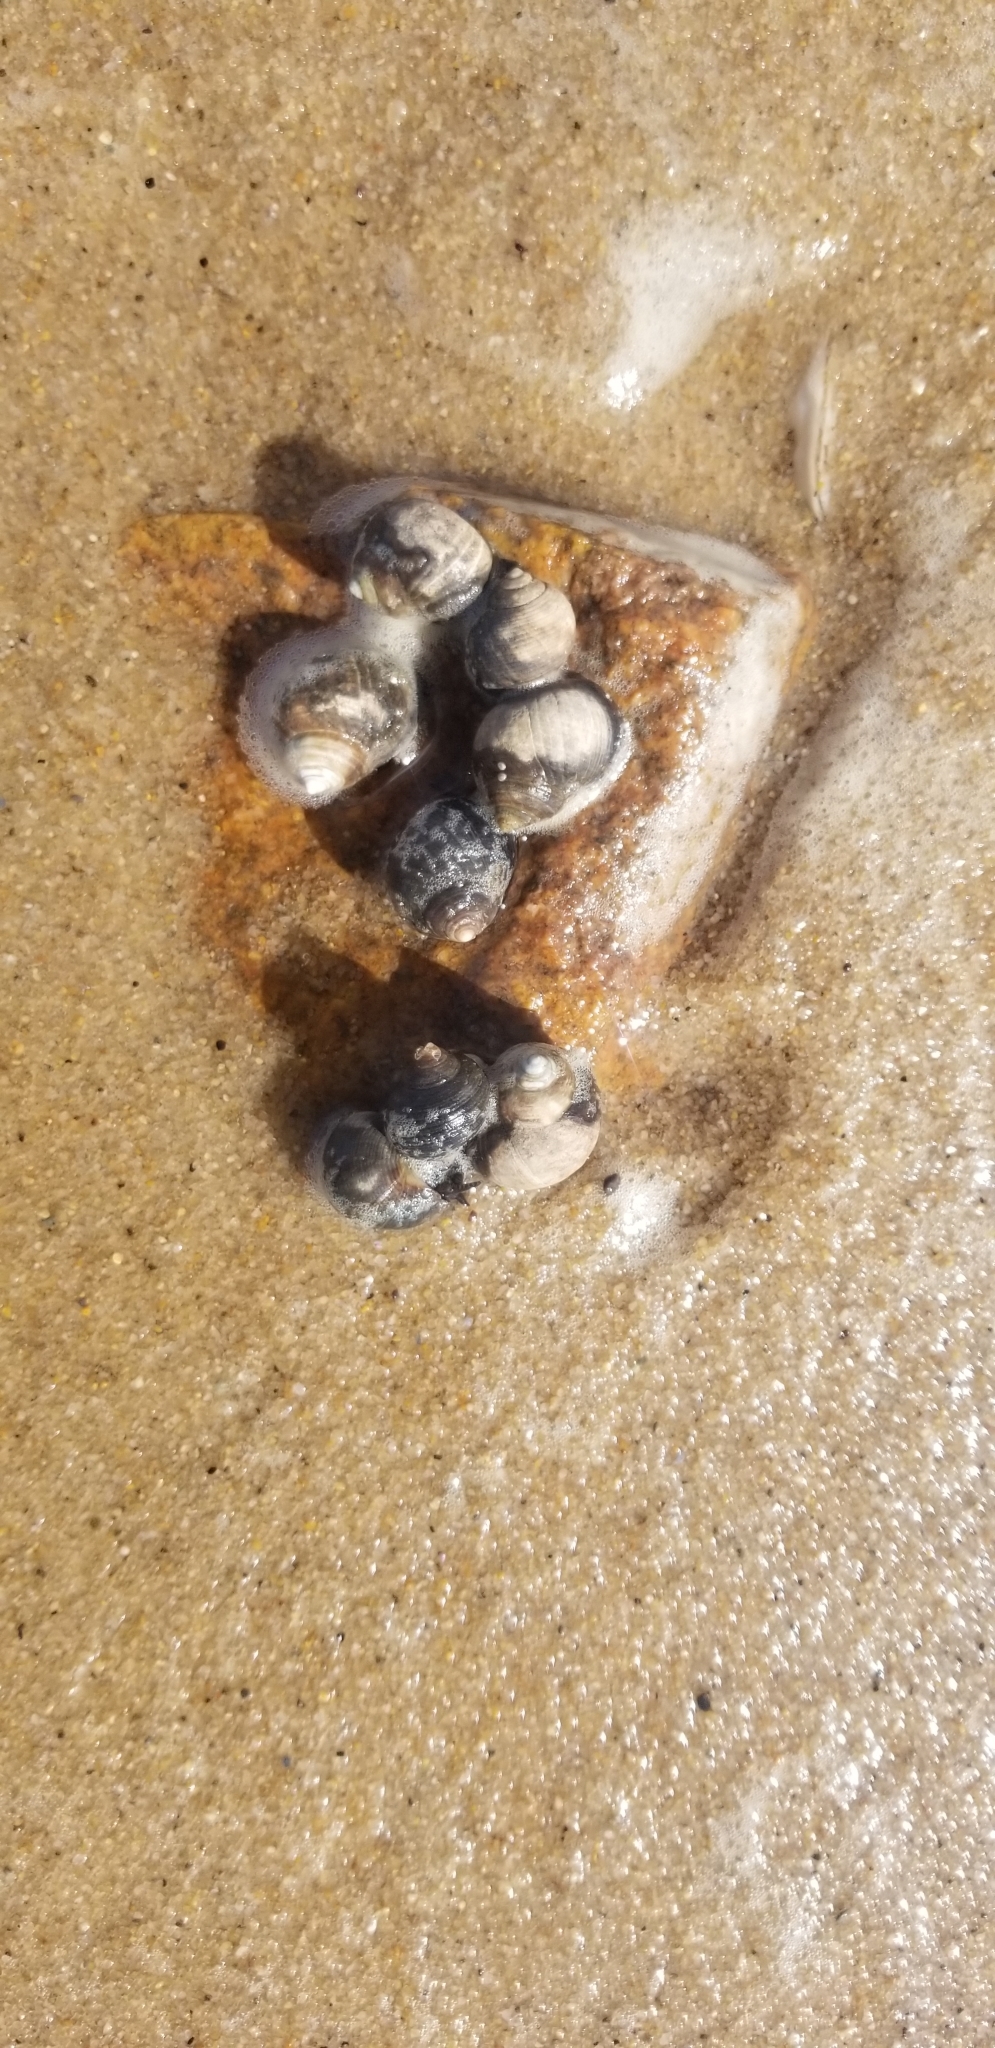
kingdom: Animalia
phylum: Mollusca
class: Gastropoda
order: Littorinimorpha
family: Littorinidae
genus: Littorina
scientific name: Littorina littorea
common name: Common periwinkle
